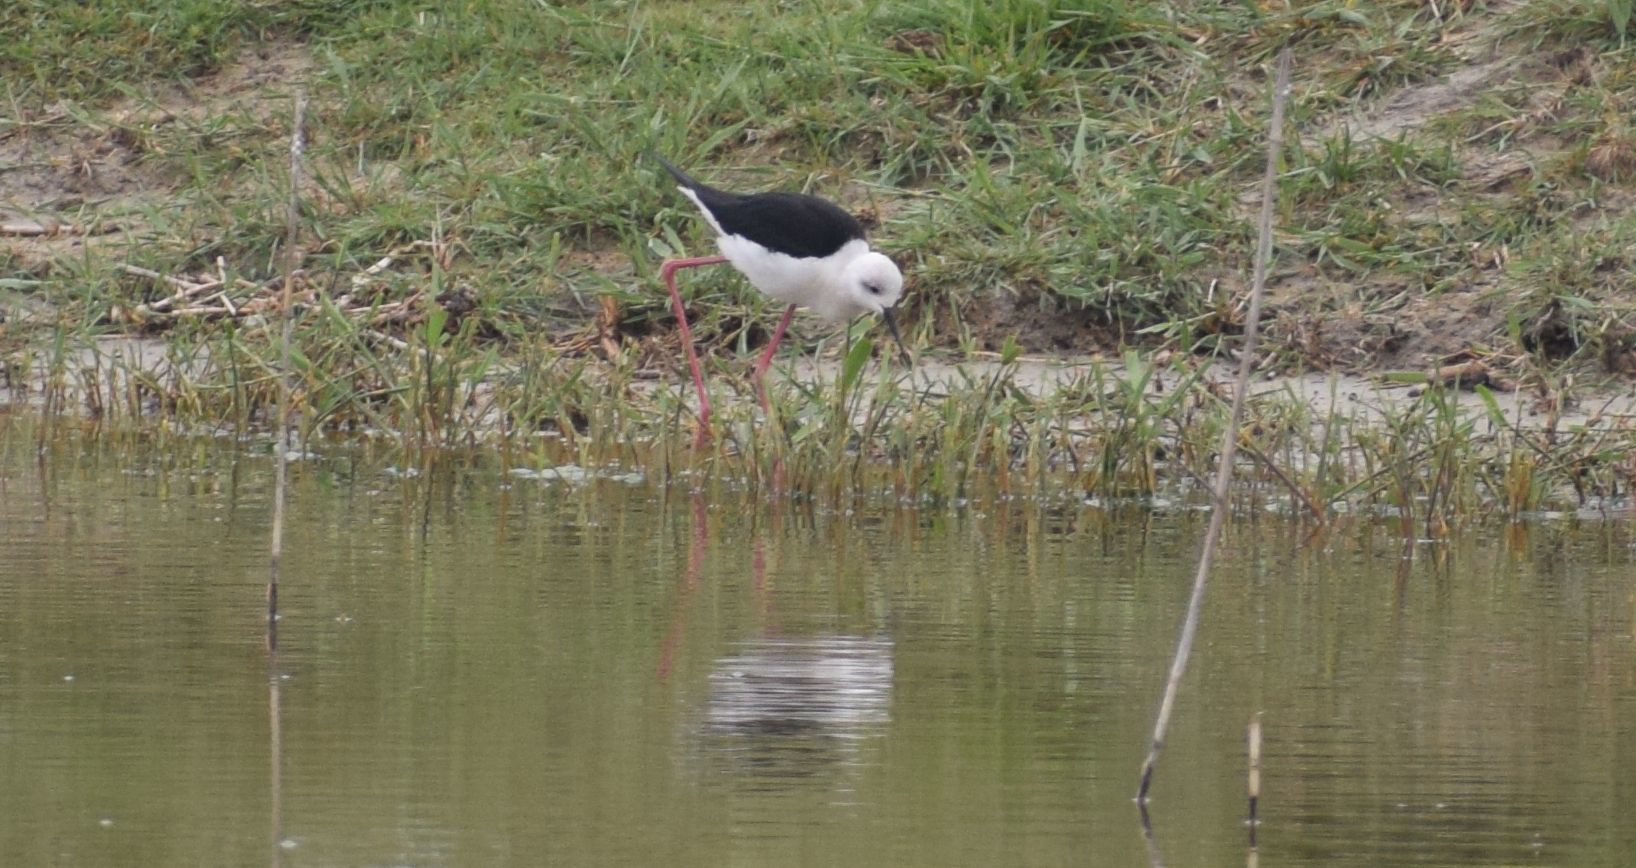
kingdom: Animalia
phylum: Chordata
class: Aves
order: Charadriiformes
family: Recurvirostridae
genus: Himantopus
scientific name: Himantopus himantopus
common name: Black-winged stilt
